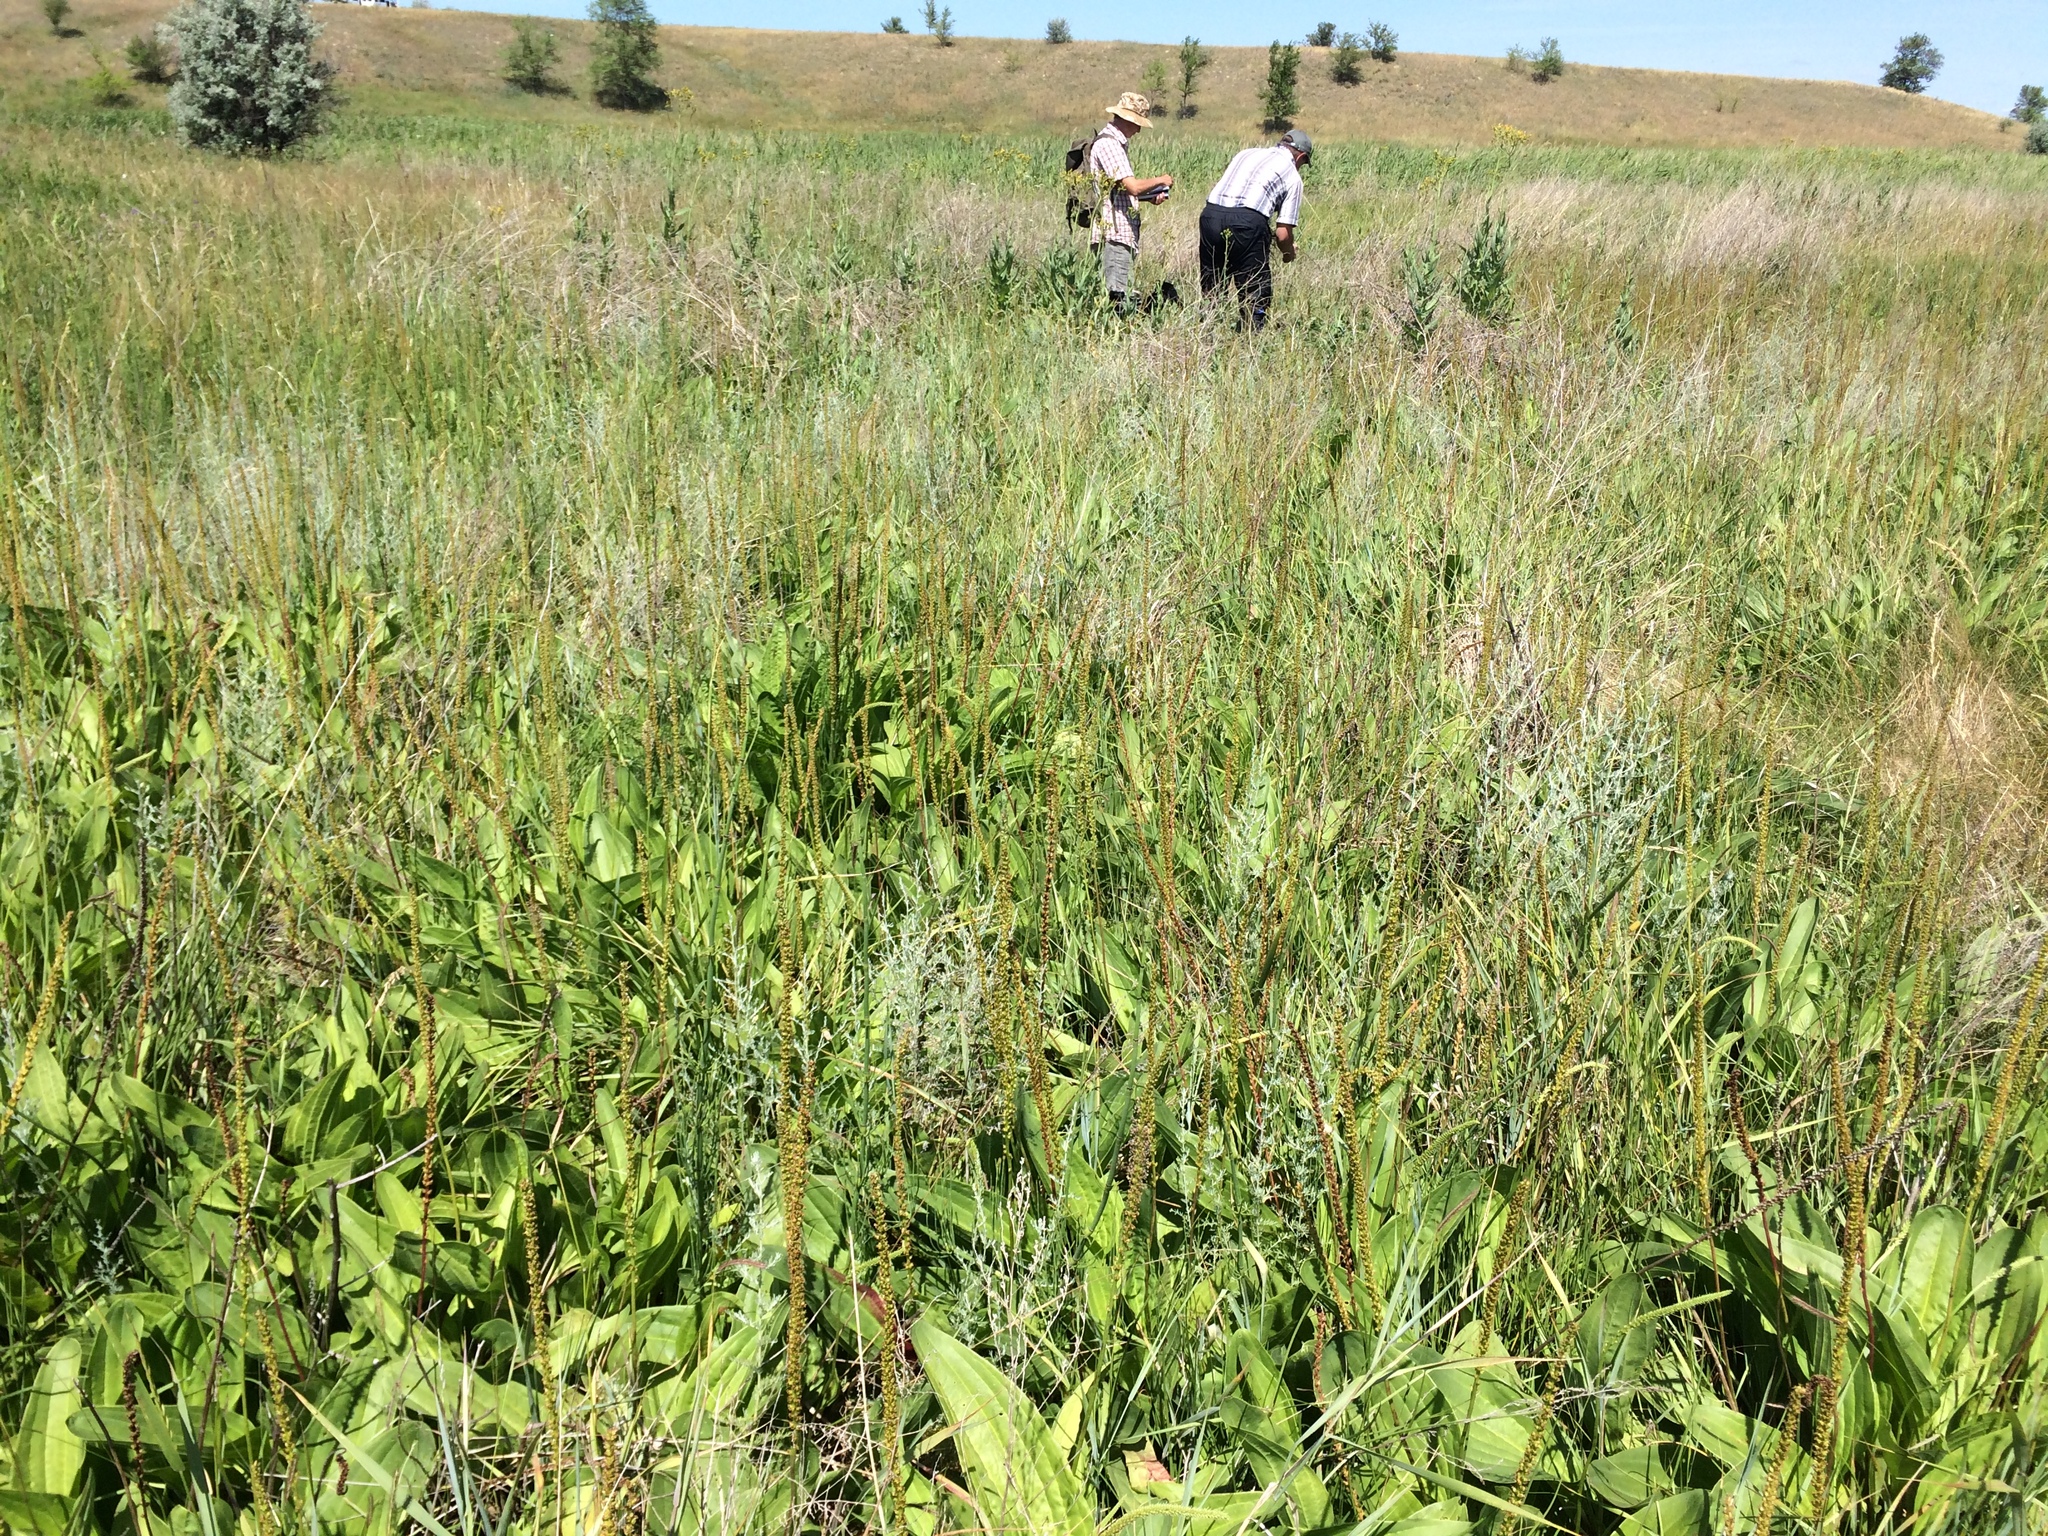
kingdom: Plantae
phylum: Tracheophyta
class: Magnoliopsida
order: Lamiales
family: Plantaginaceae
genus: Plantago
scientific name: Plantago cornuti
